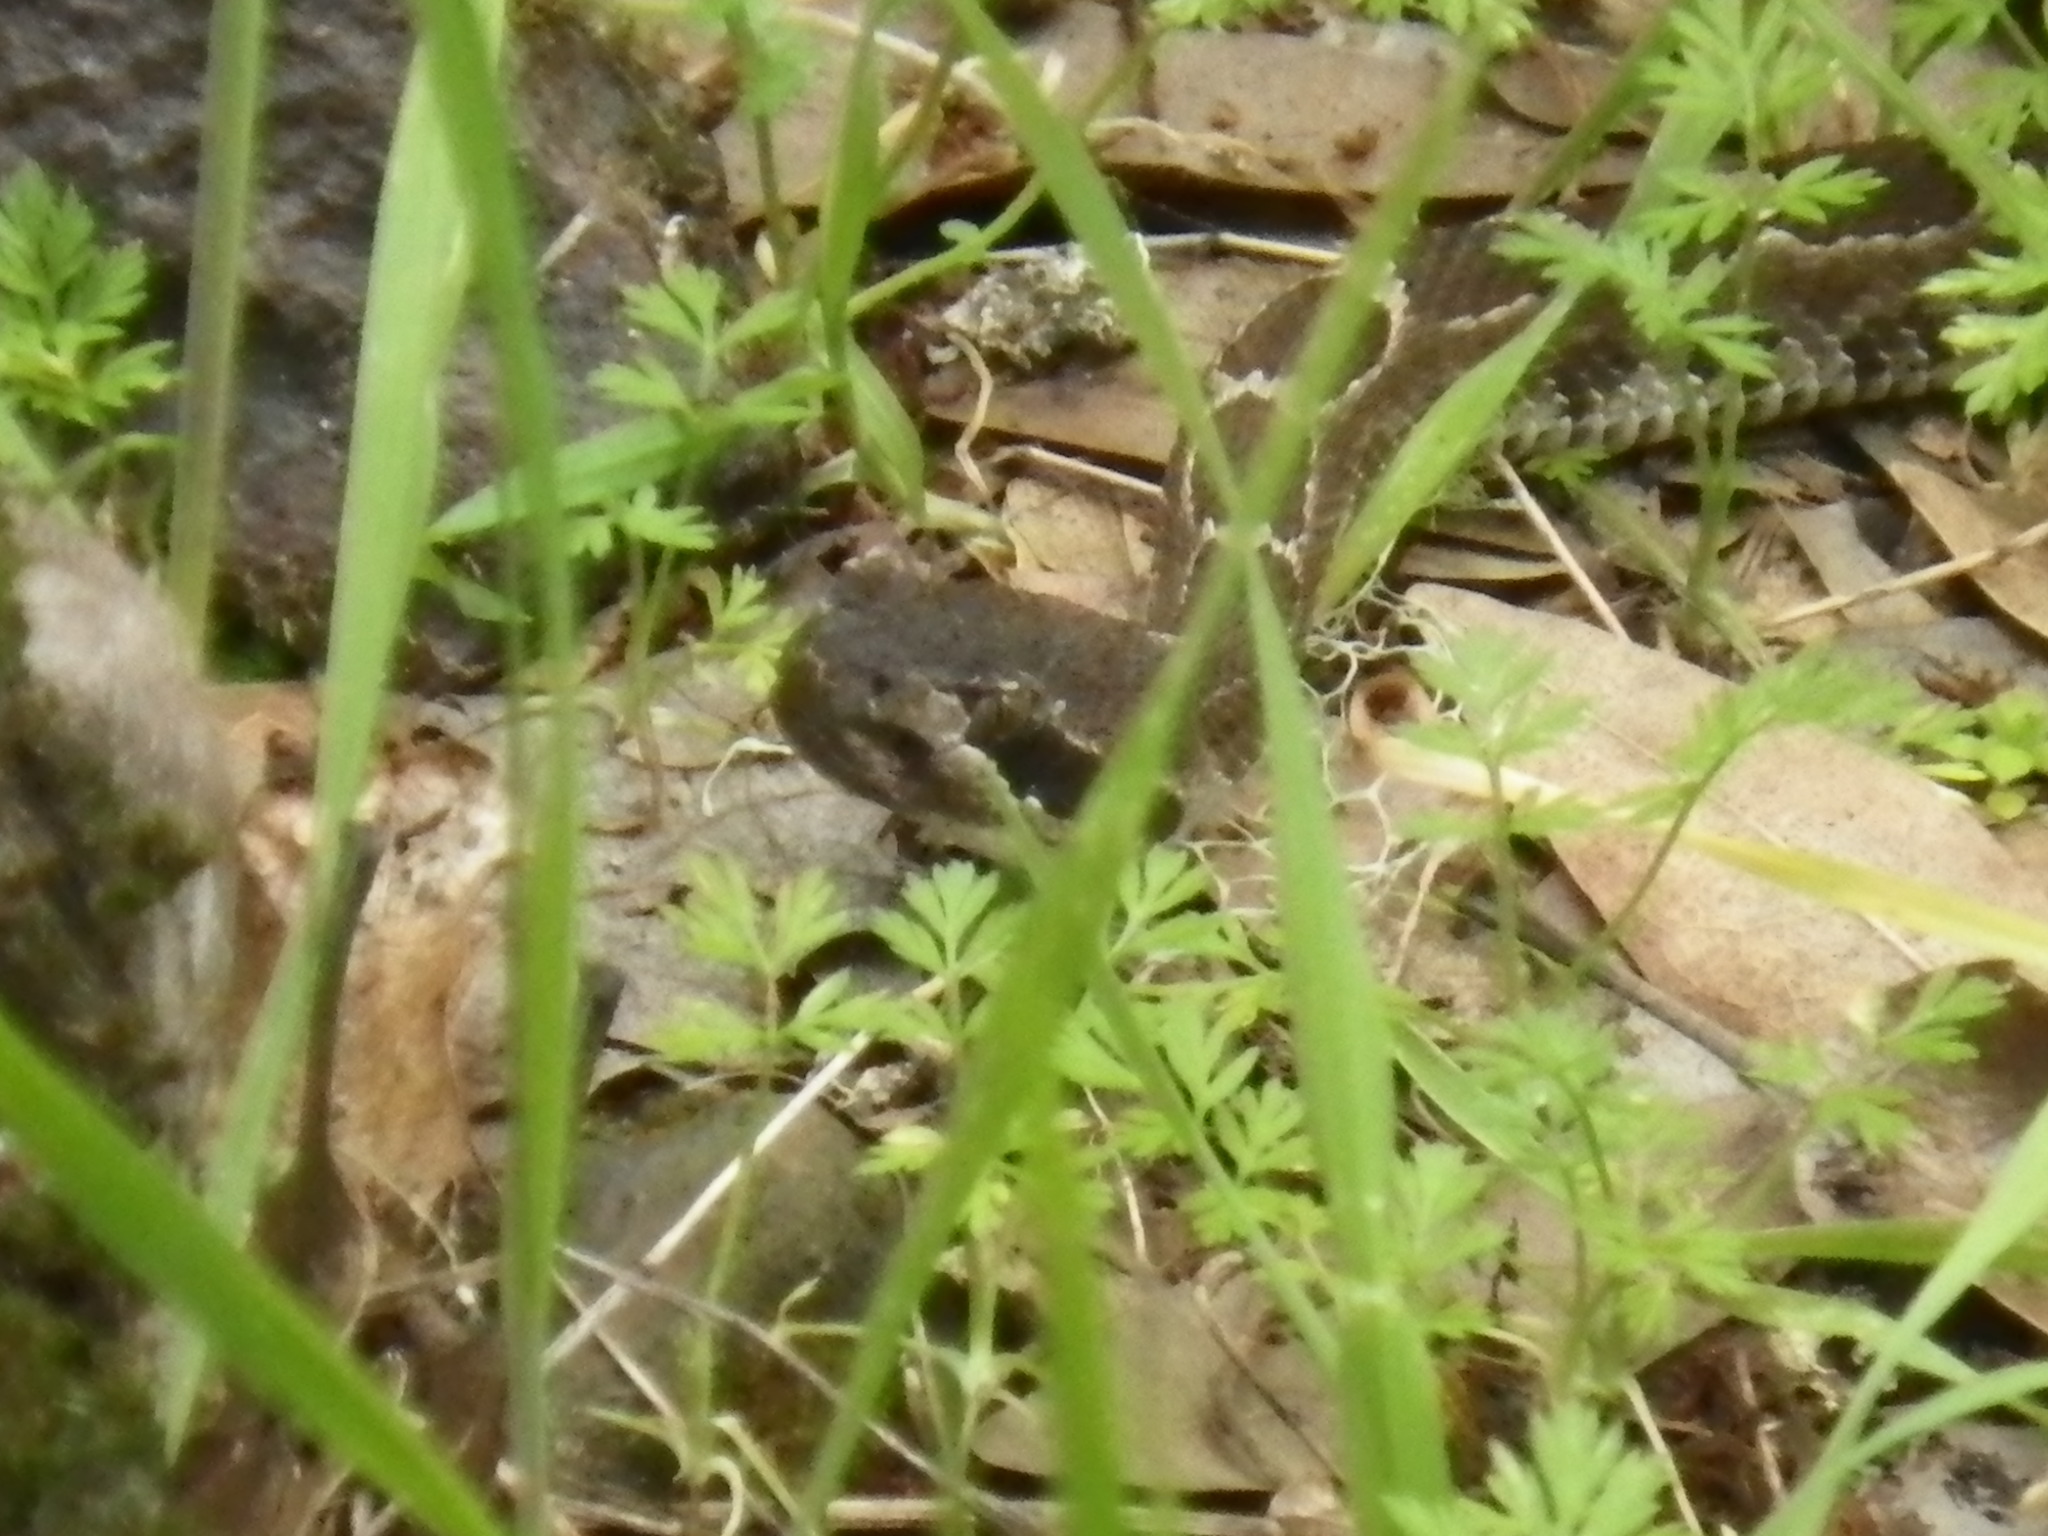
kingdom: Animalia
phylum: Chordata
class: Squamata
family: Viperidae
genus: Crotalus
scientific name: Crotalus oreganus
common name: Abyssus
